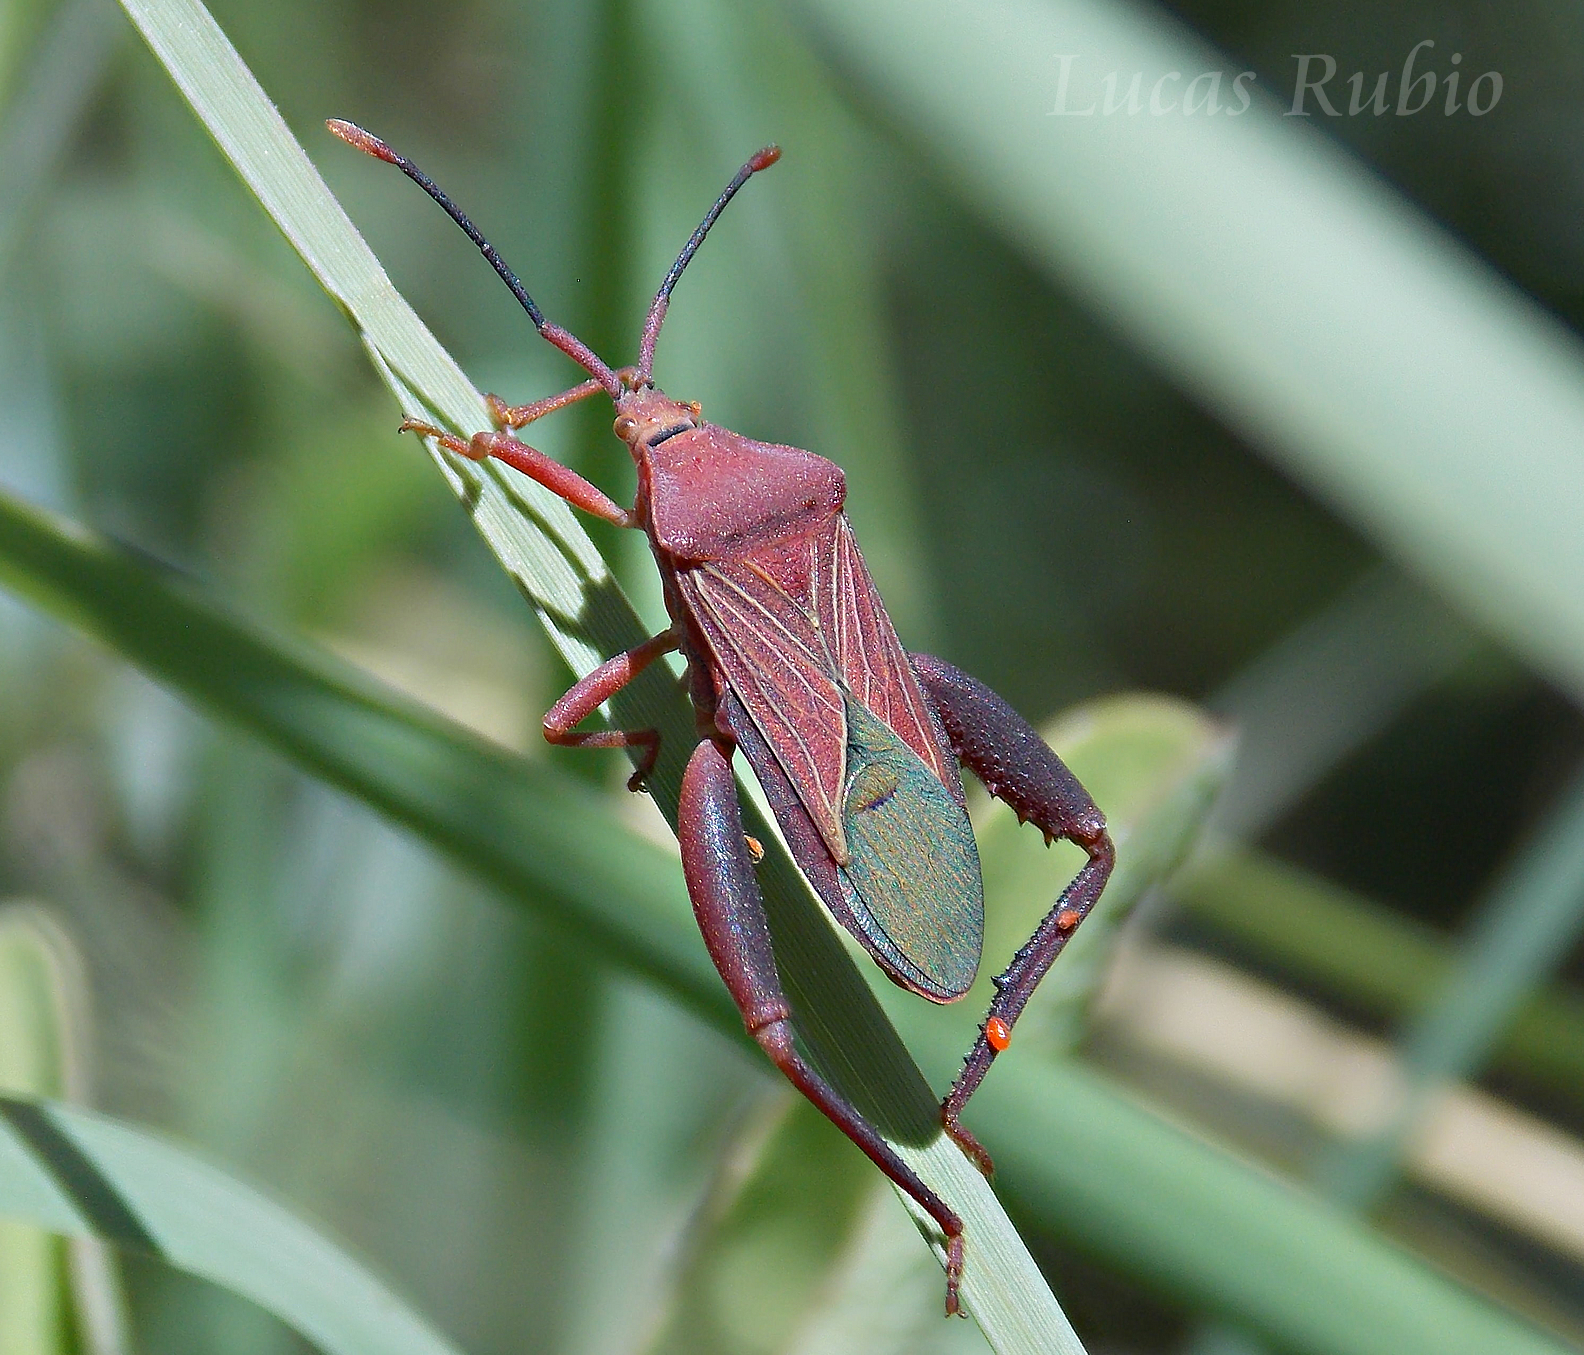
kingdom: Animalia
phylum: Arthropoda
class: Insecta
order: Hemiptera
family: Coreidae
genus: Athaumastus
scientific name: Athaumastus haematicus
